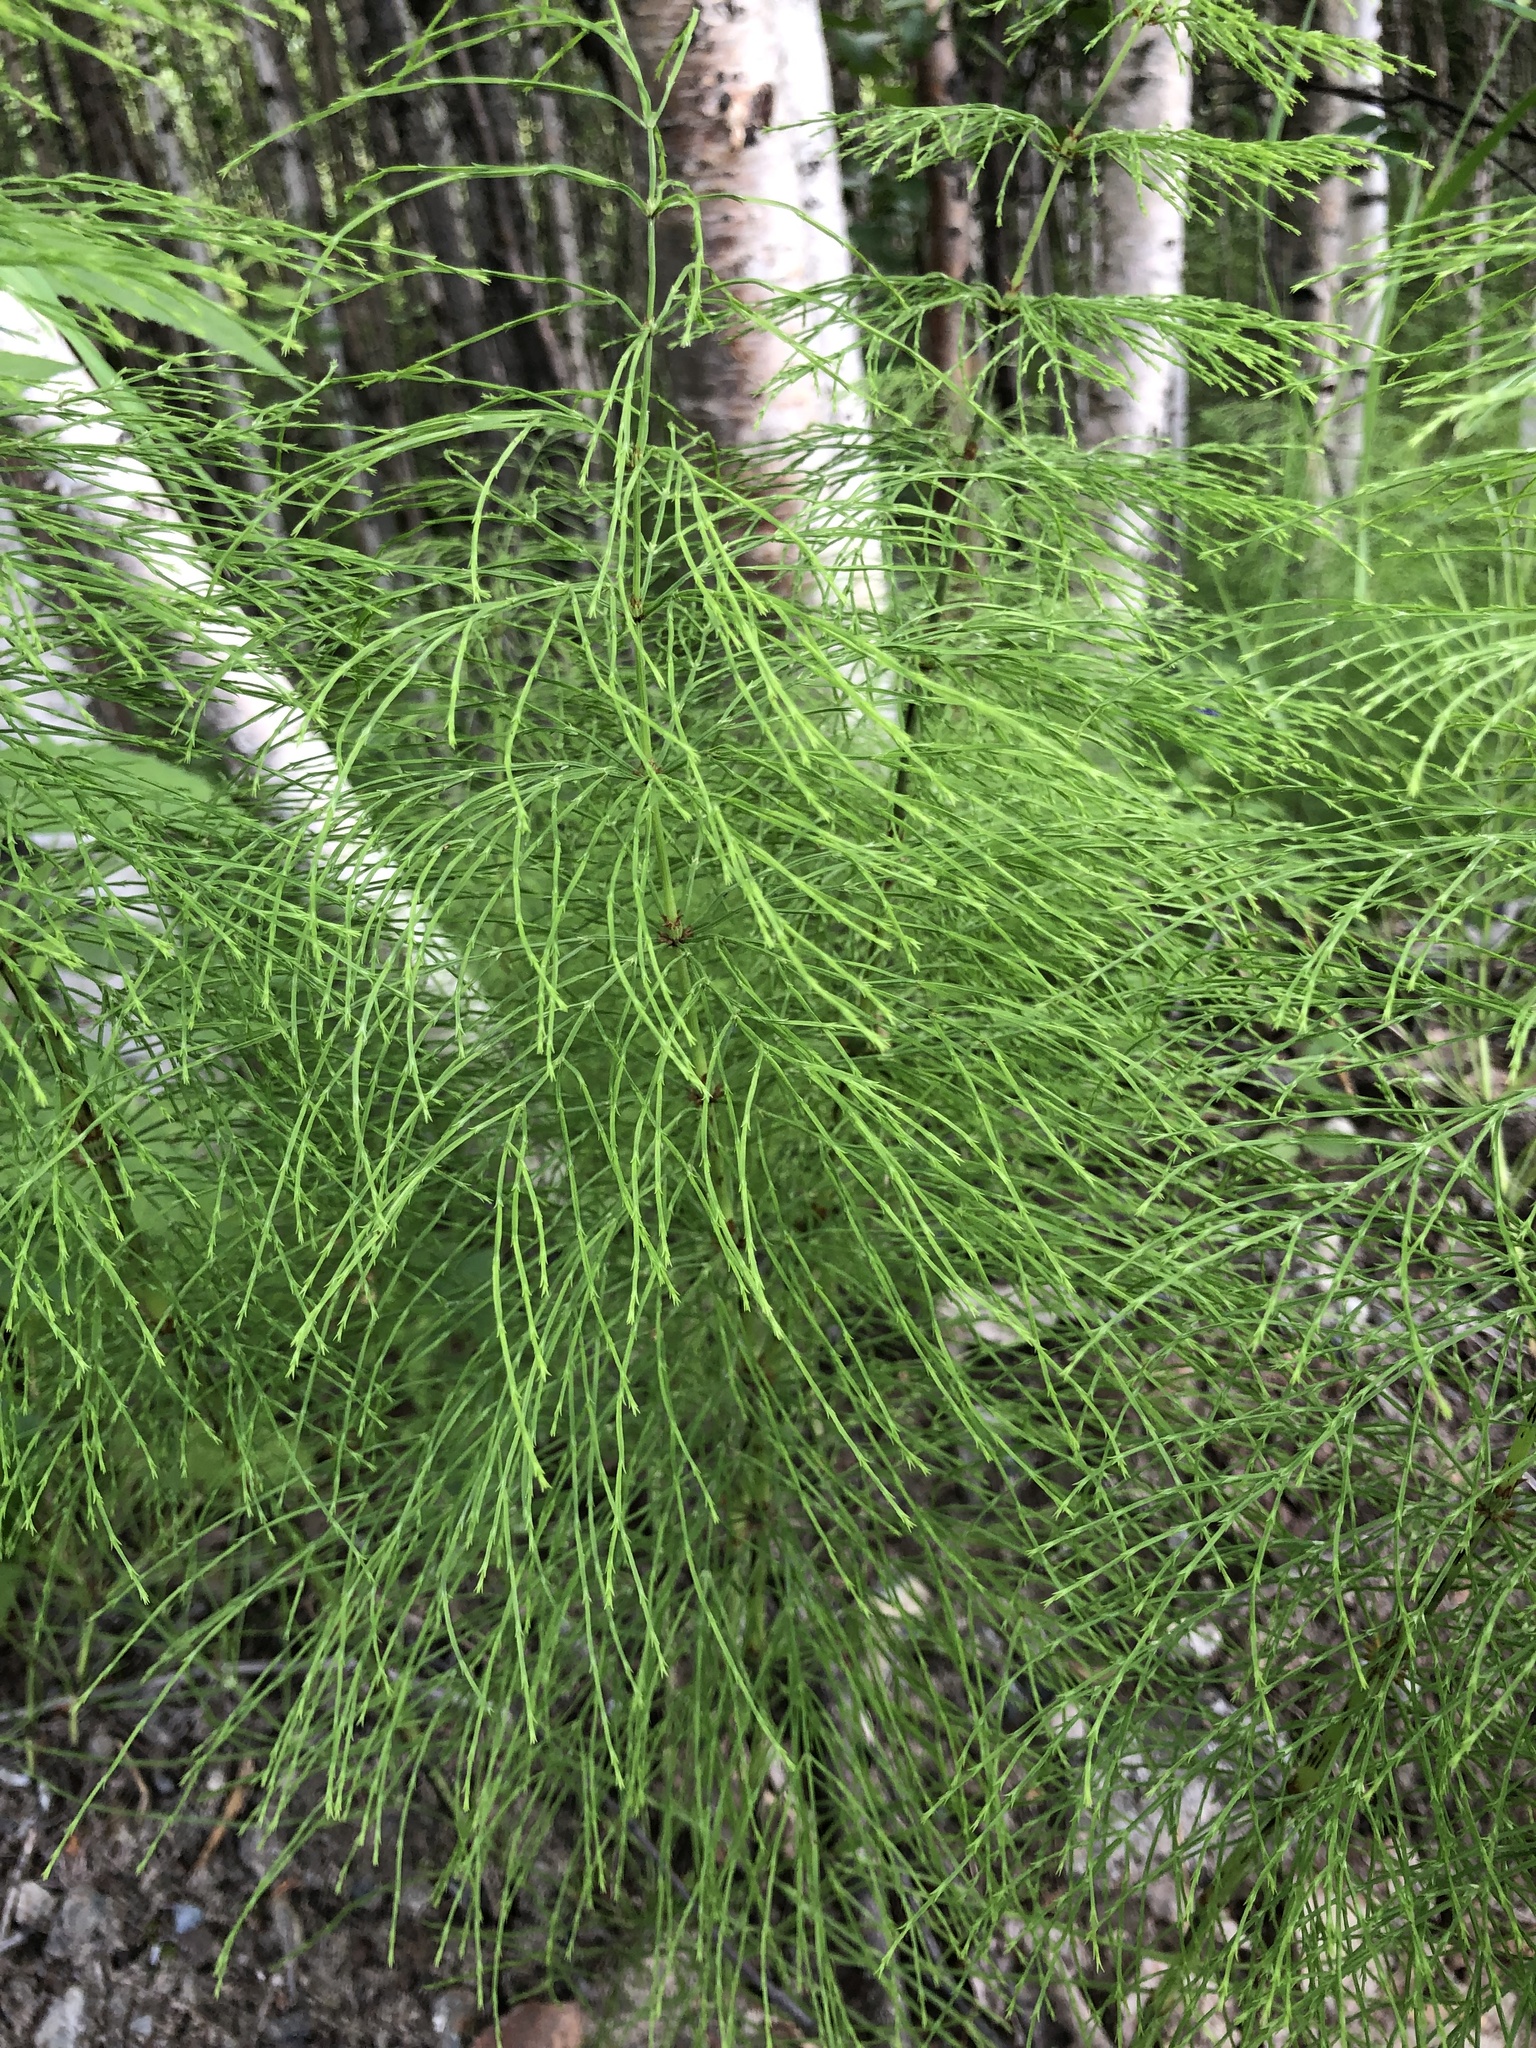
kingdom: Plantae
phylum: Tracheophyta
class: Polypodiopsida
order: Equisetales
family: Equisetaceae
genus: Equisetum
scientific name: Equisetum sylvaticum
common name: Wood horsetail
